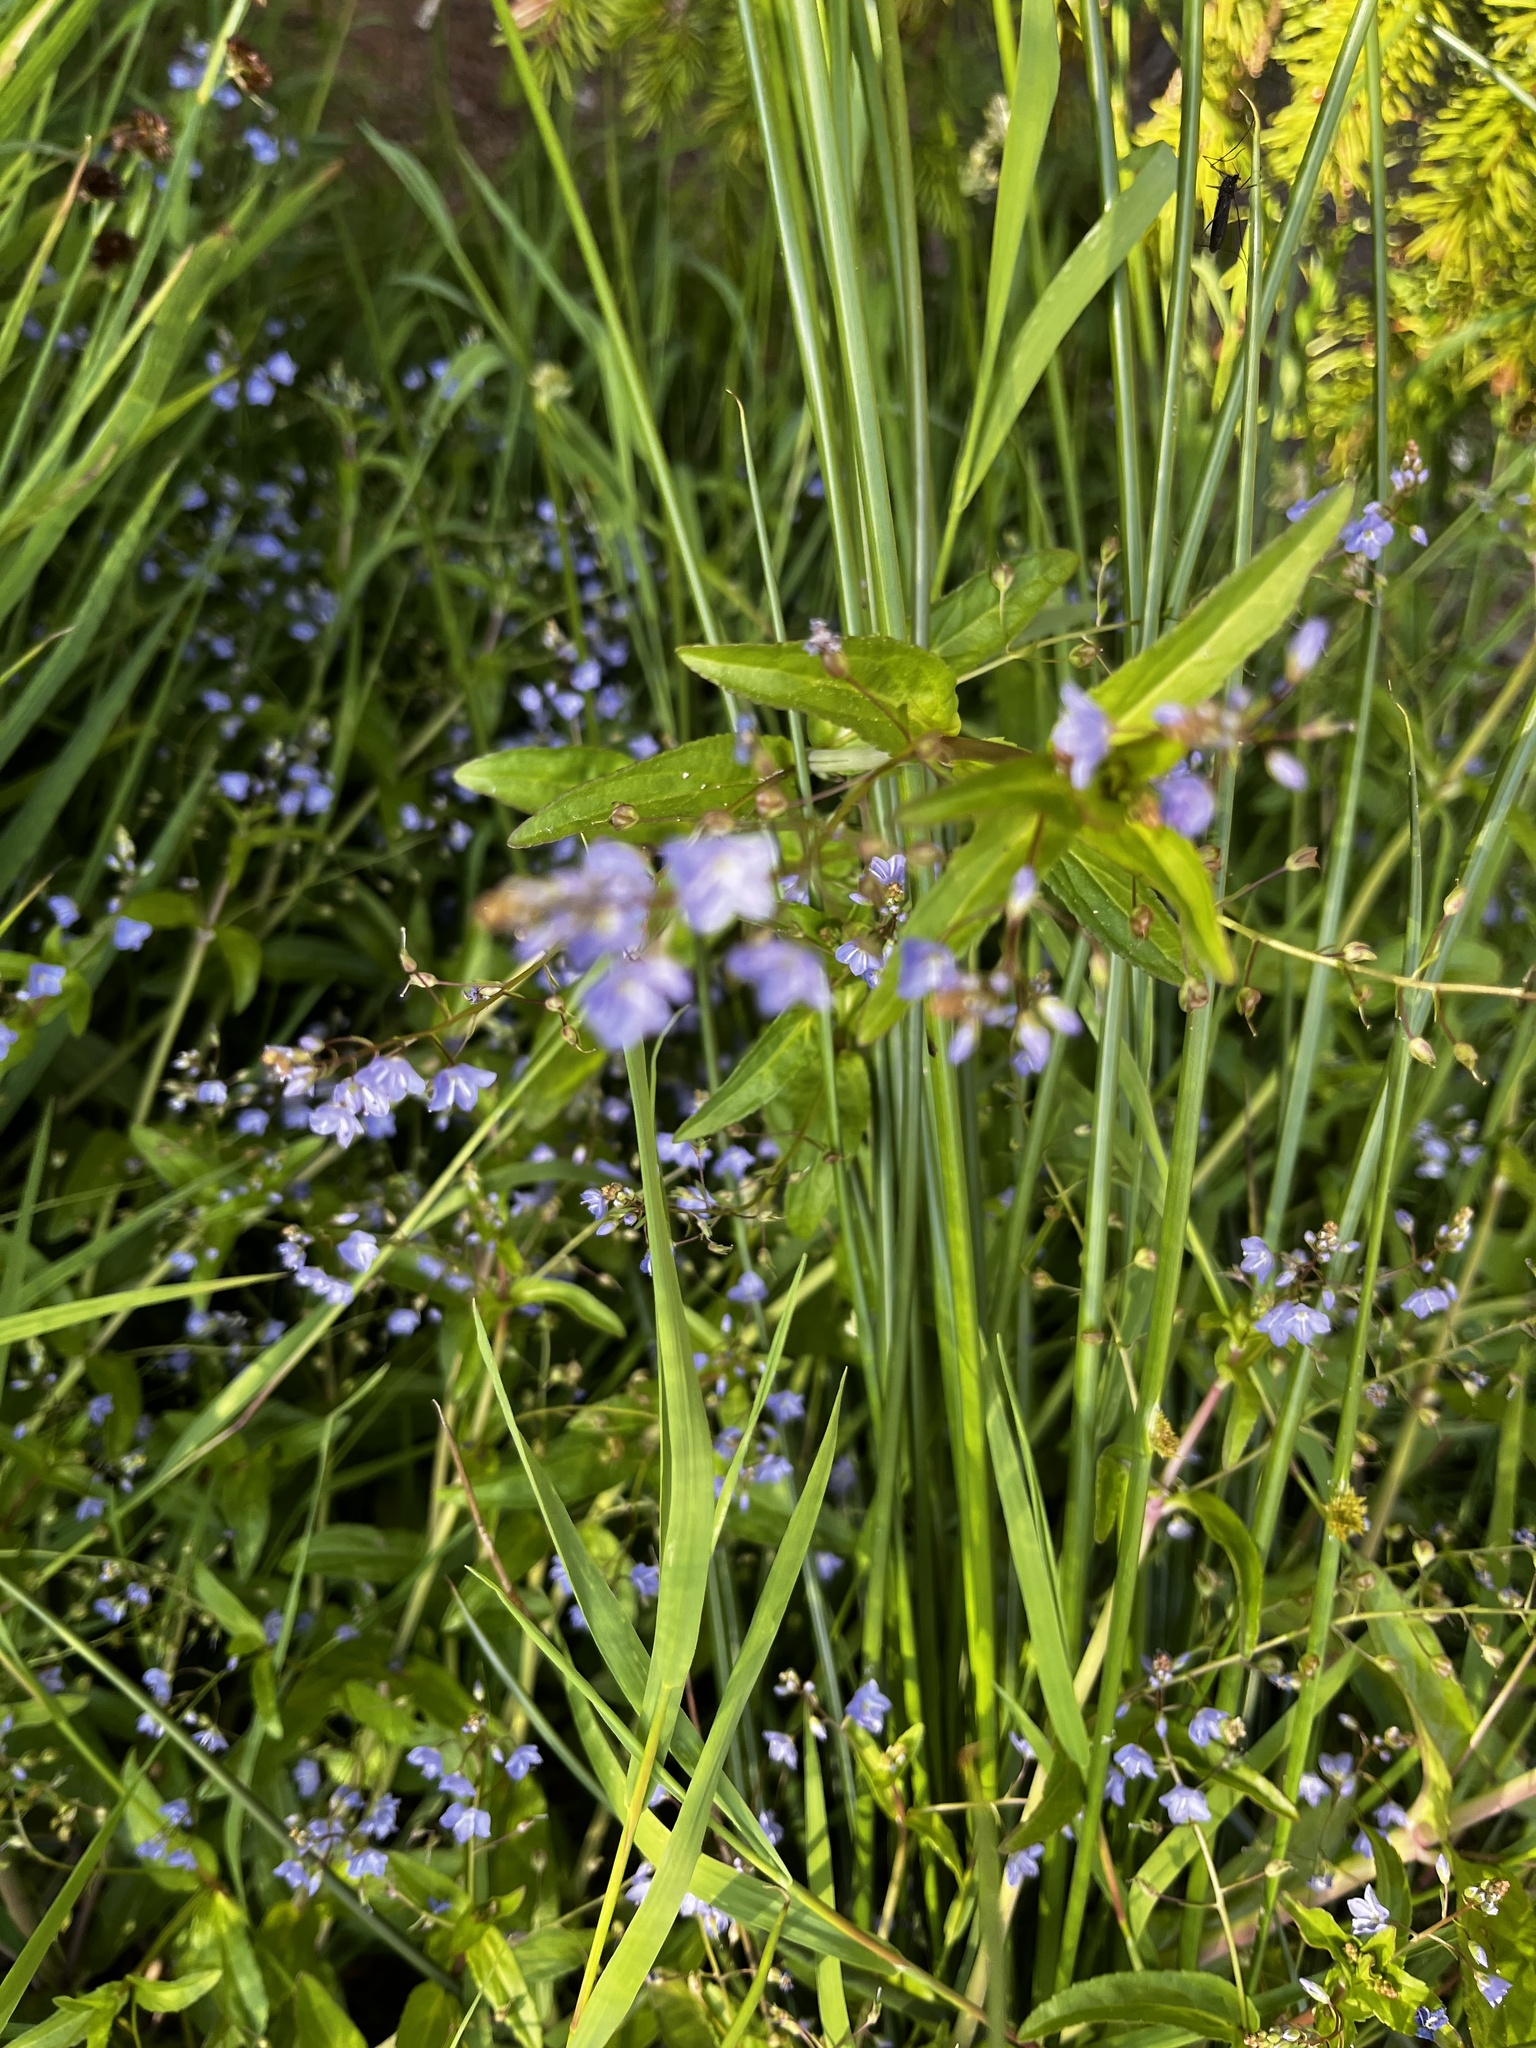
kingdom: Plantae
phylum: Tracheophyta
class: Magnoliopsida
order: Lamiales
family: Plantaginaceae
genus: Veronica
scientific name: Veronica americana
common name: American brooklime
